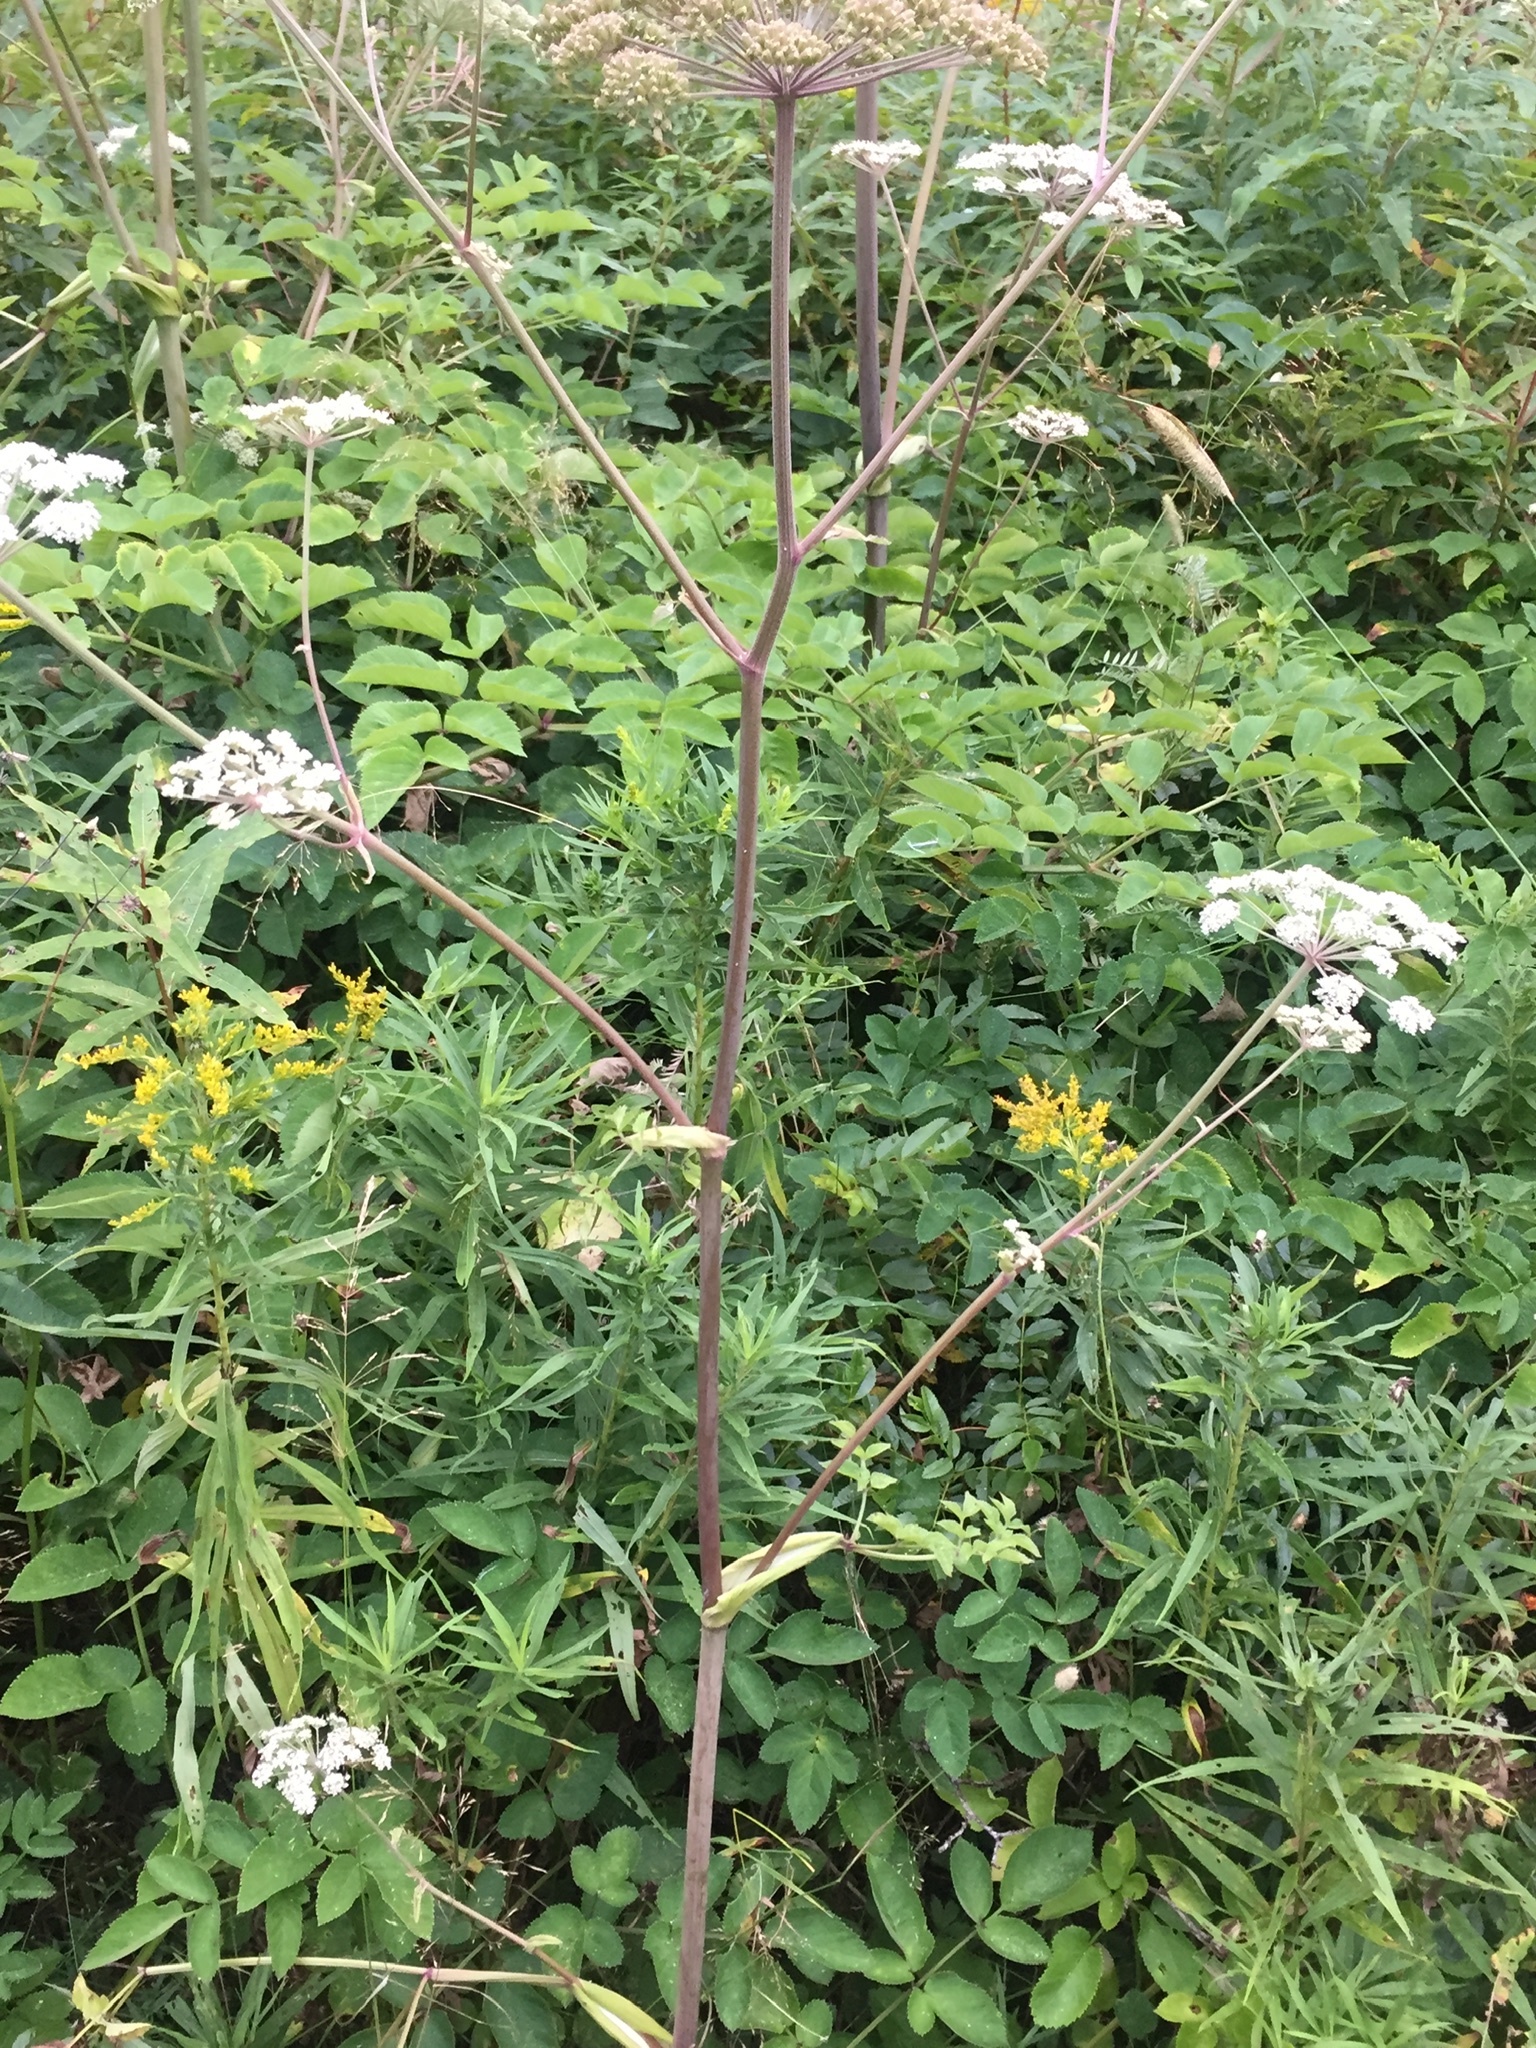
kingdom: Plantae
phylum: Tracheophyta
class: Magnoliopsida
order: Apiales
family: Apiaceae
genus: Angelica
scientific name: Angelica sylvestris
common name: Wild angelica
